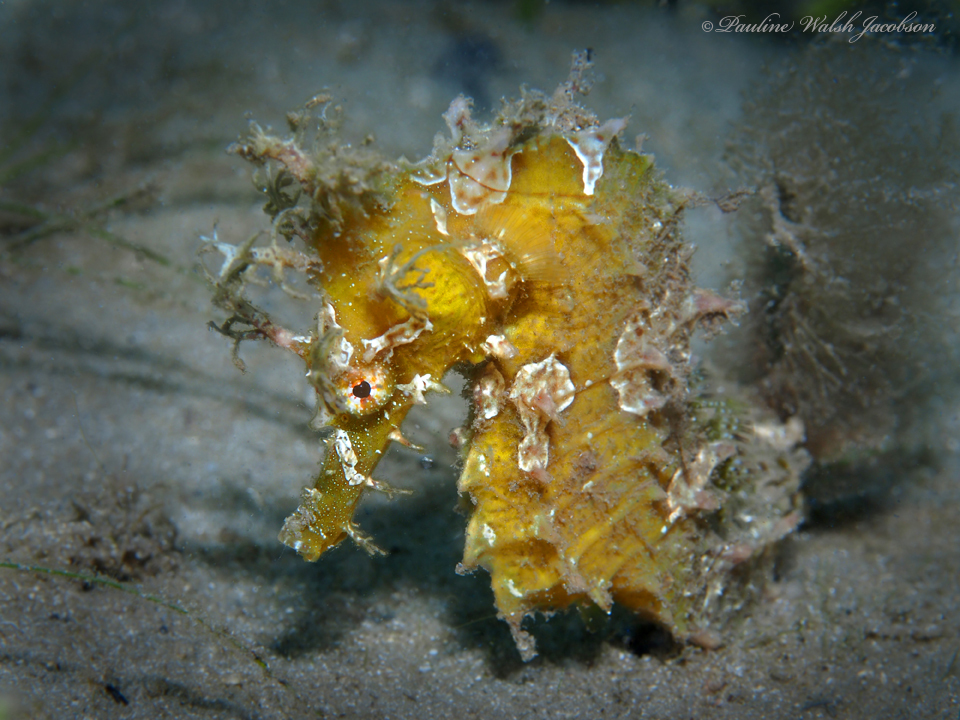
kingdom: Animalia
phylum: Chordata
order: Syngnathiformes
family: Syngnathidae
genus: Hippocampus
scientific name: Hippocampus erectus
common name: Lined seahorse
